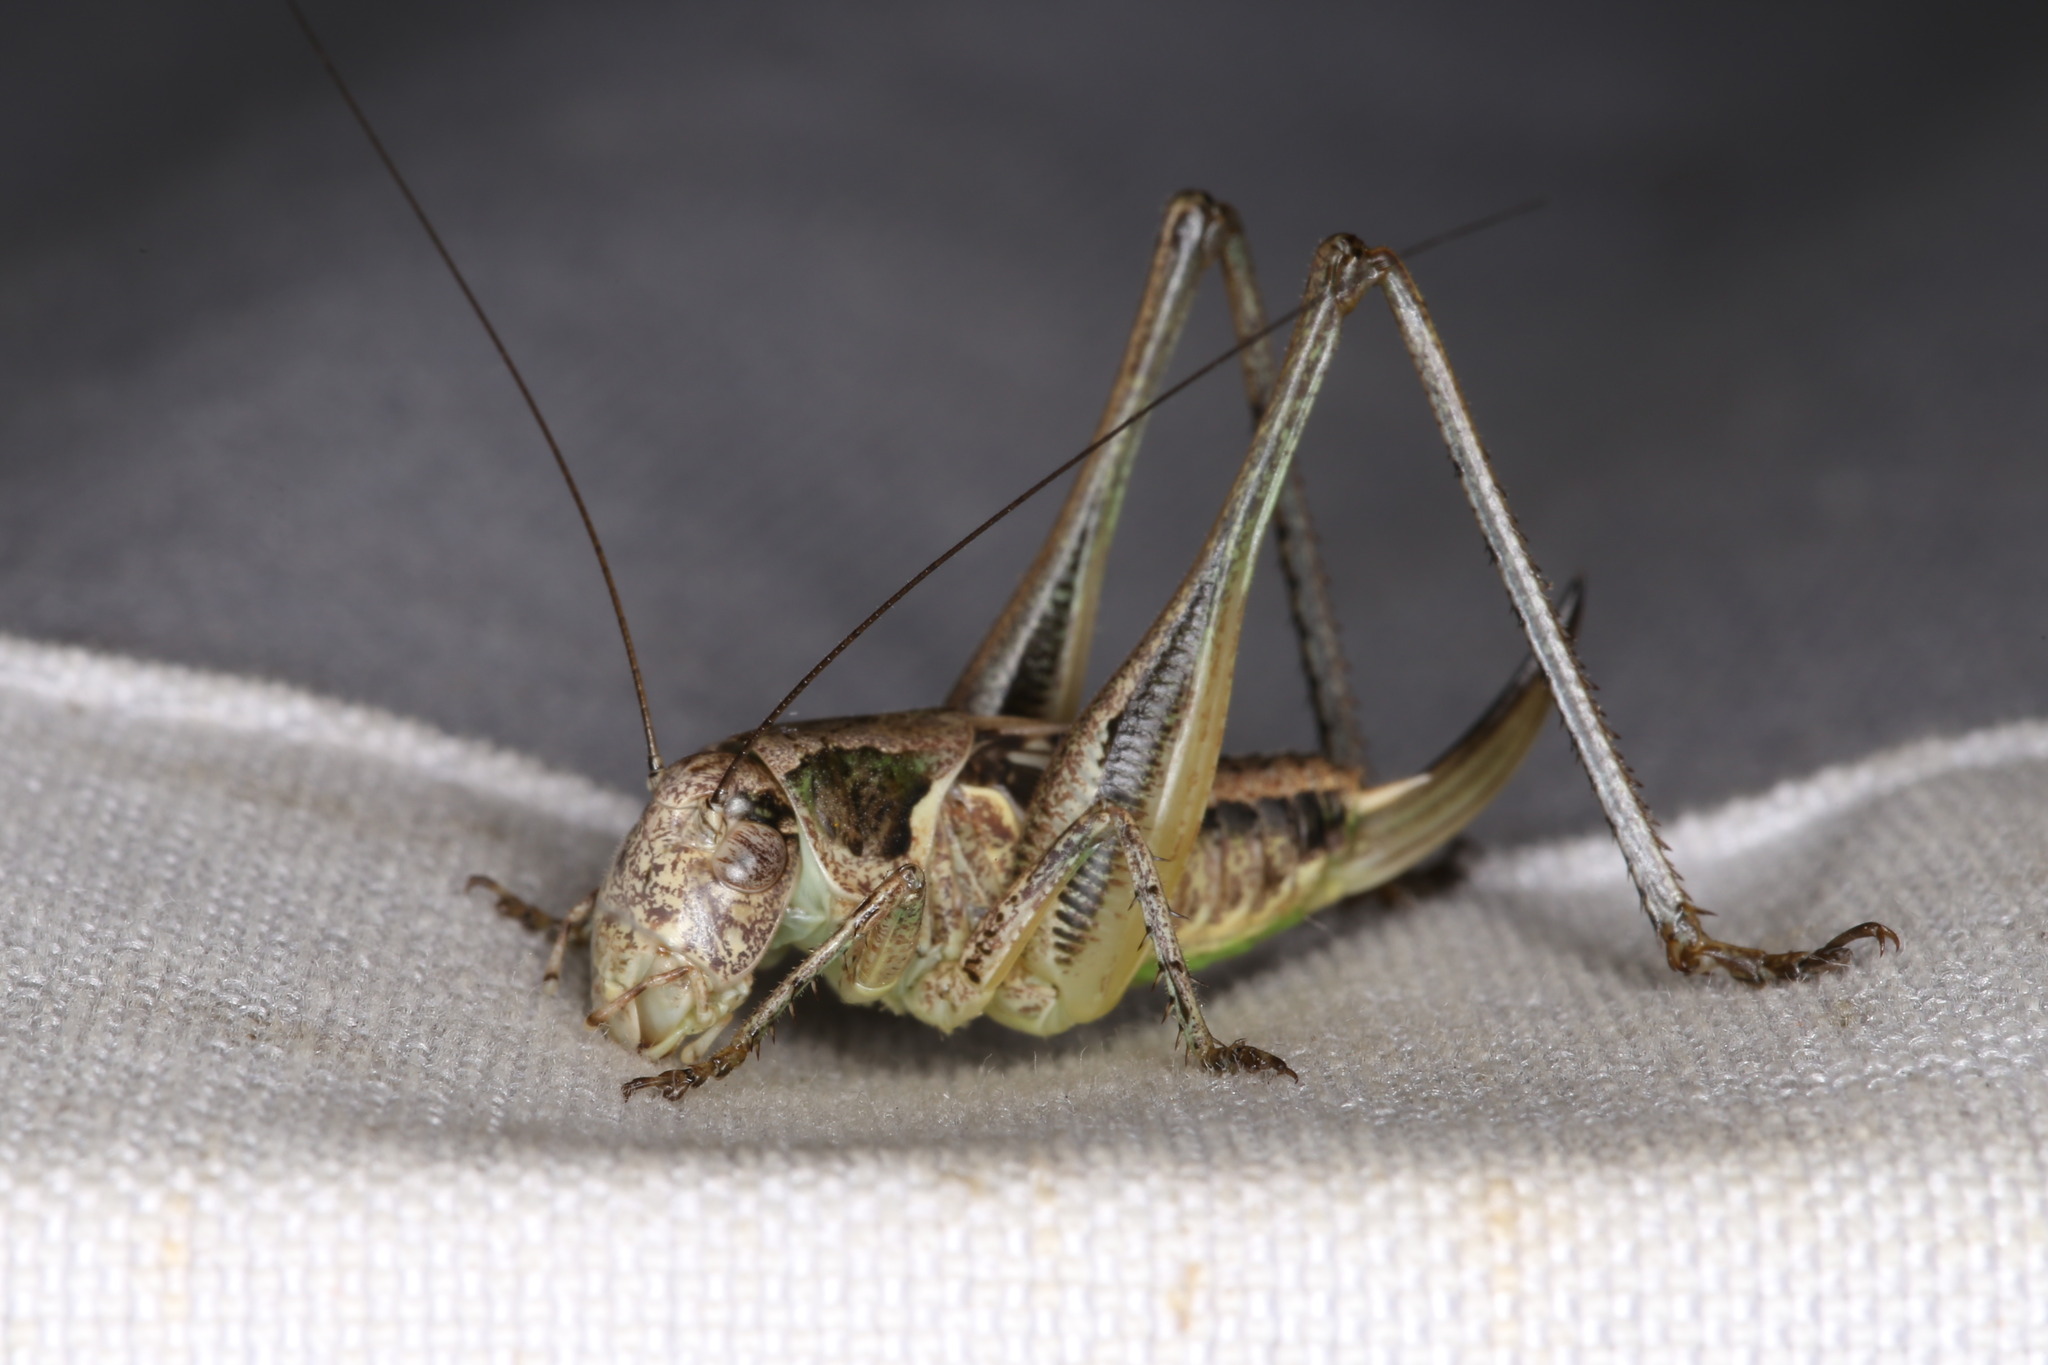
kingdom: Animalia
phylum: Arthropoda
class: Insecta
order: Orthoptera
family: Tettigoniidae
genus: Platycleis
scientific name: Platycleis grisea
